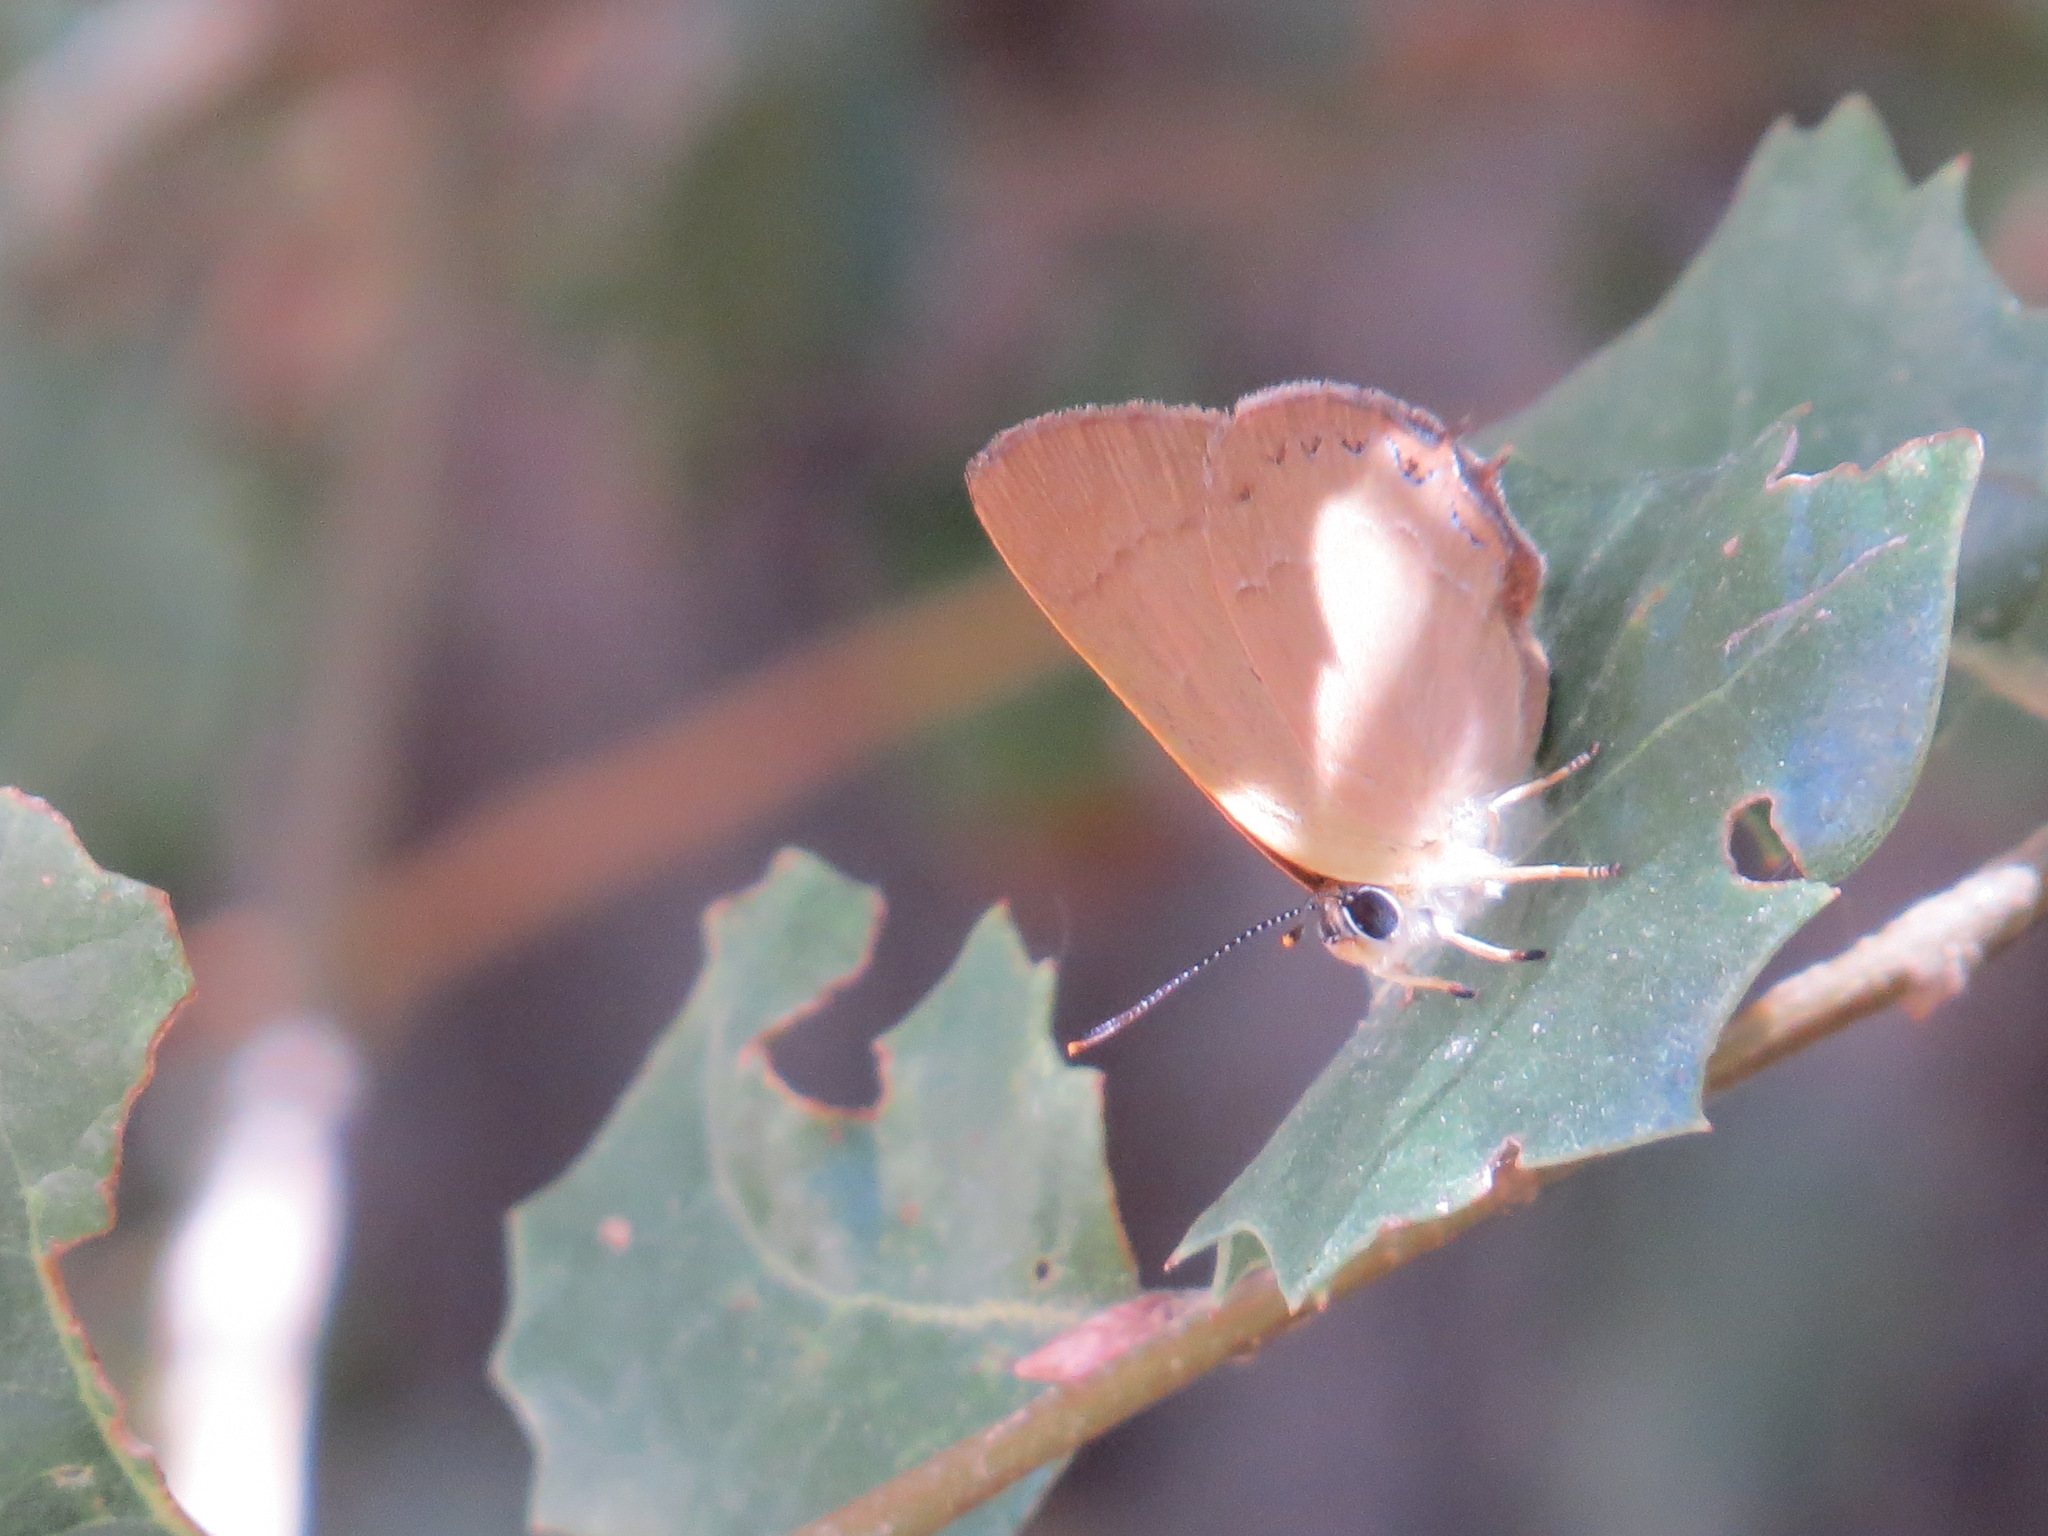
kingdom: Animalia
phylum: Arthropoda
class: Insecta
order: Lepidoptera
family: Lycaenidae
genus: Habrodais
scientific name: Habrodais grunus
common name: Golden hairstreak
